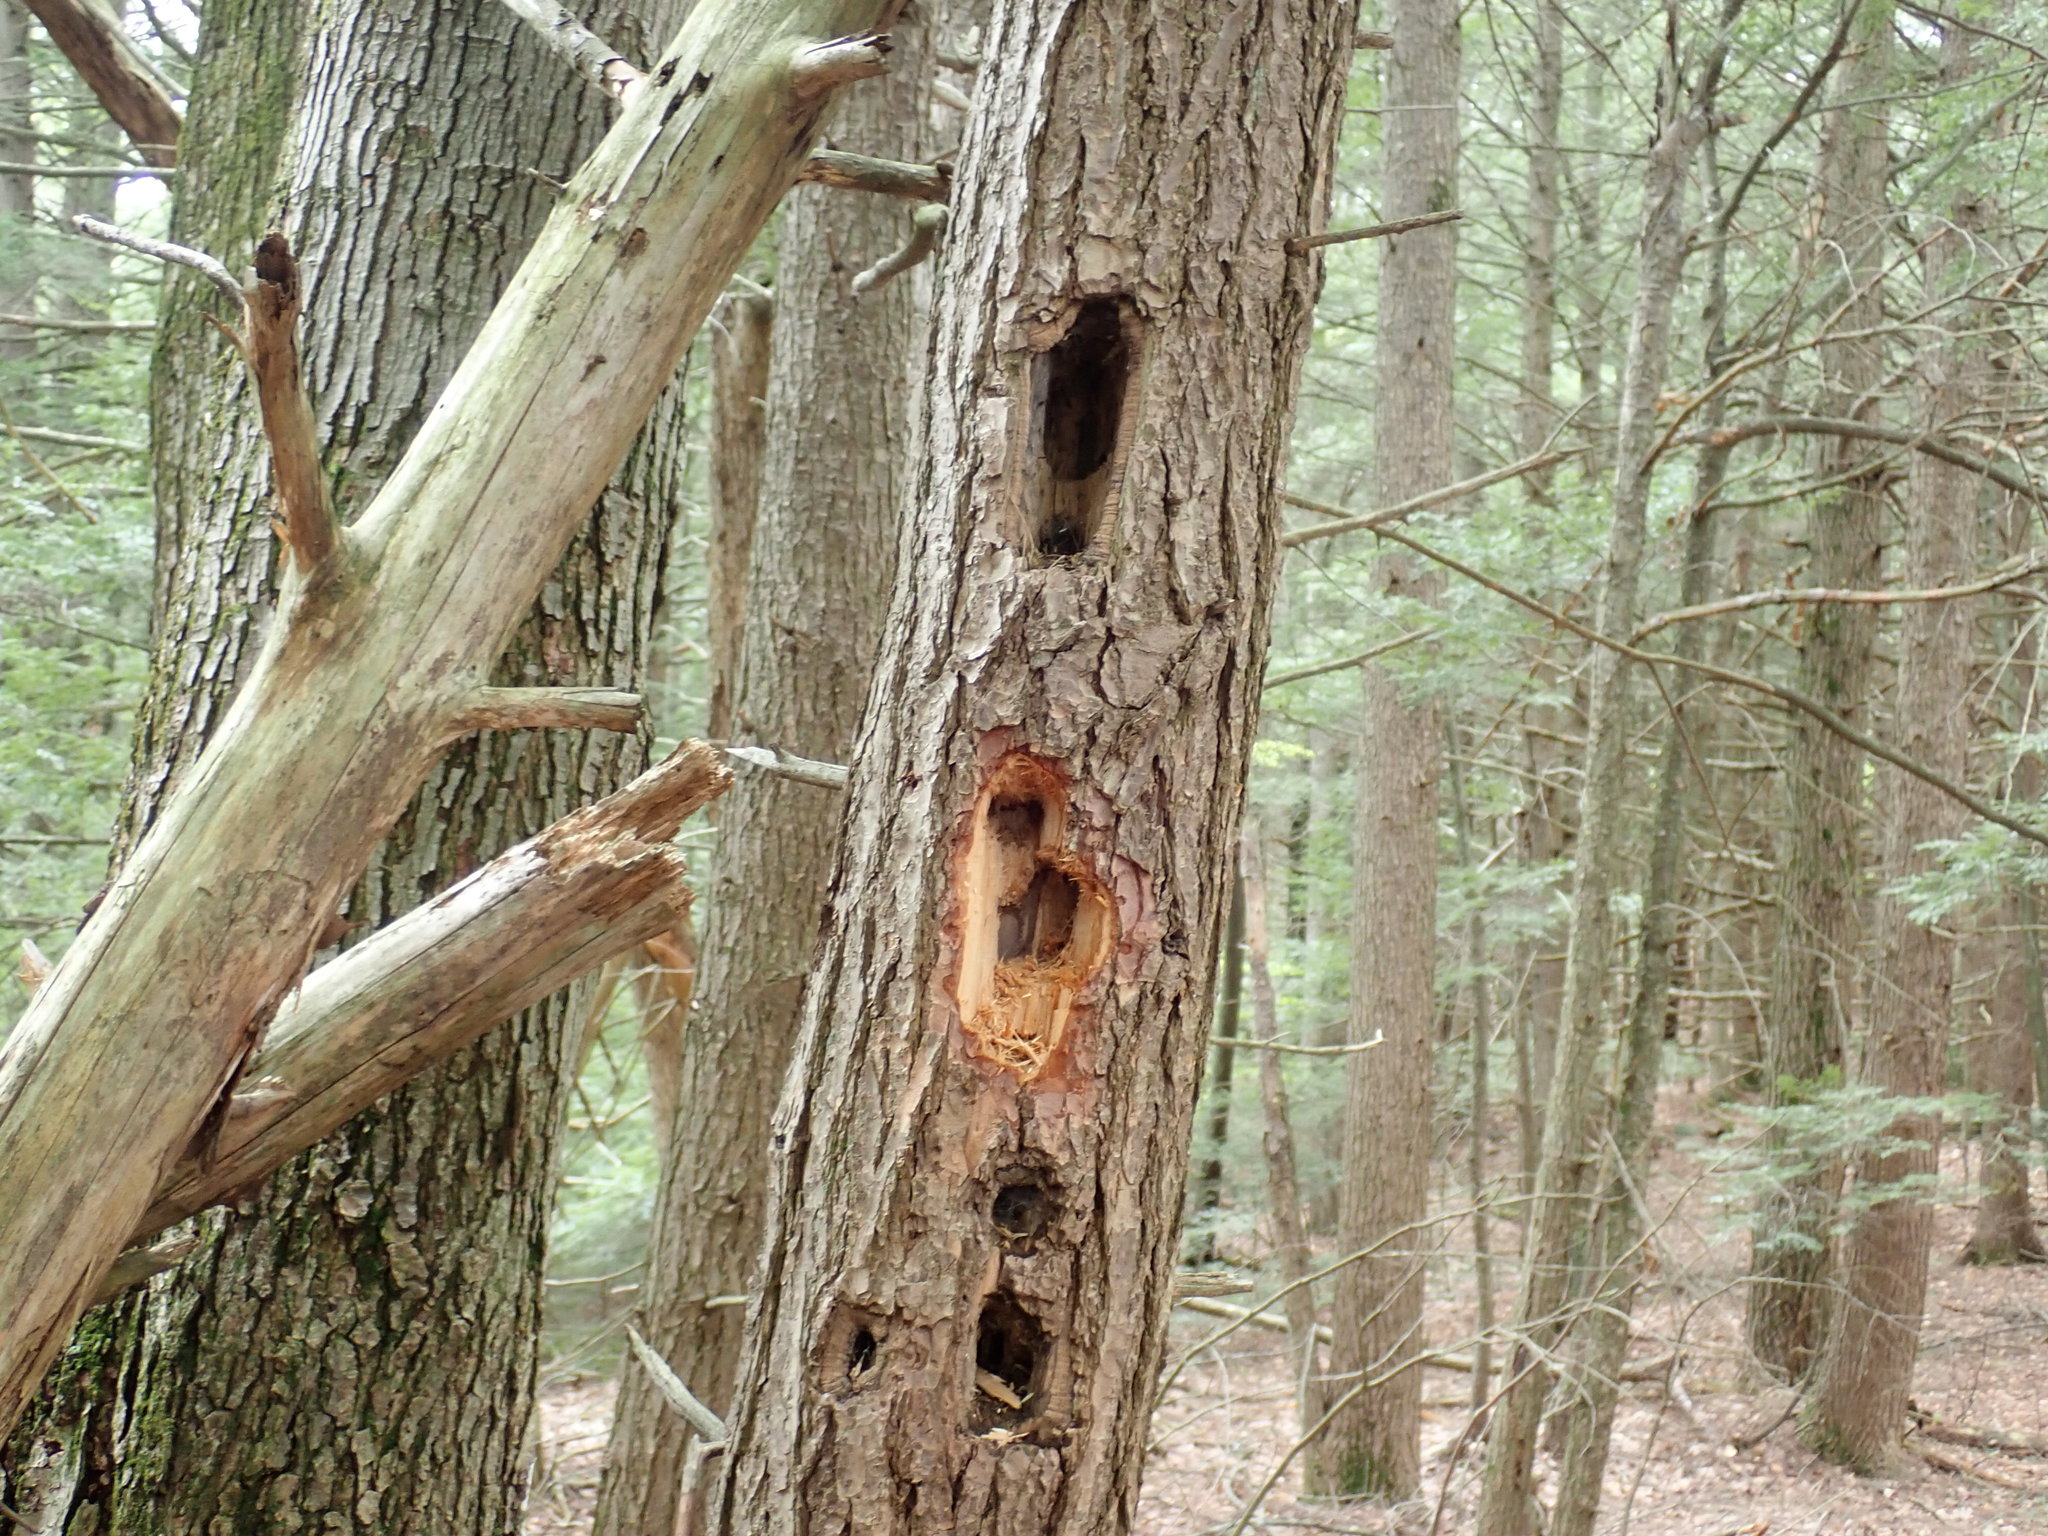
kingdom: Animalia
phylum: Chordata
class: Aves
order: Piciformes
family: Picidae
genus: Dryocopus
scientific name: Dryocopus pileatus
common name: Pileated woodpecker
